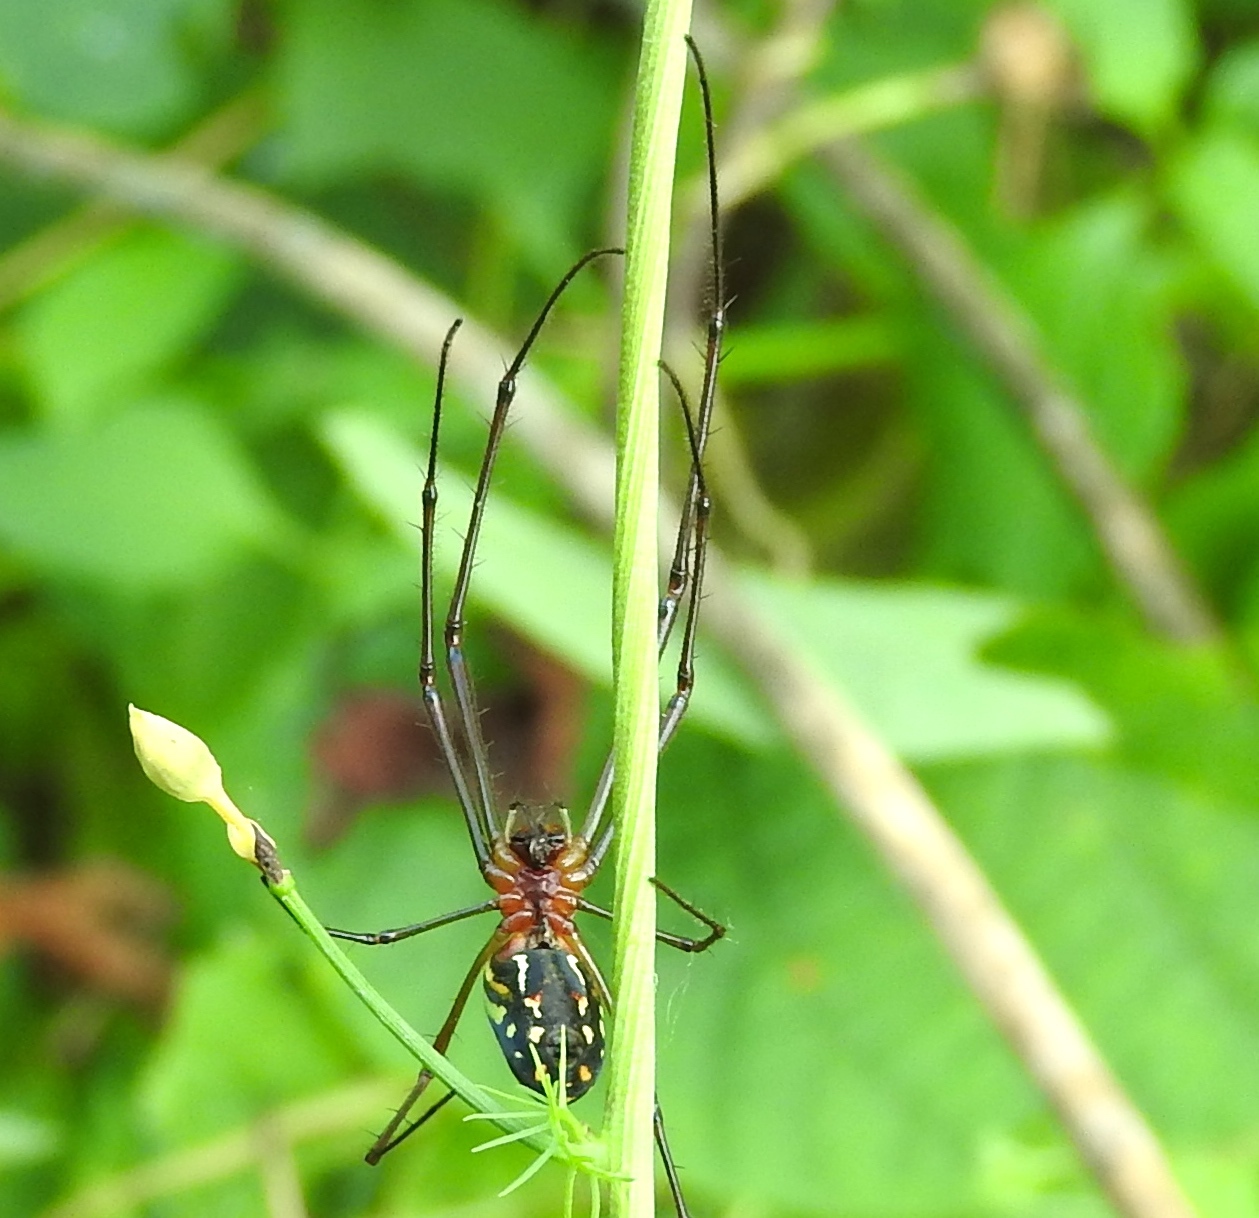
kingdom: Animalia
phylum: Arthropoda
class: Arachnida
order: Araneae
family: Tetragnathidae
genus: Leucauge
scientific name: Leucauge
